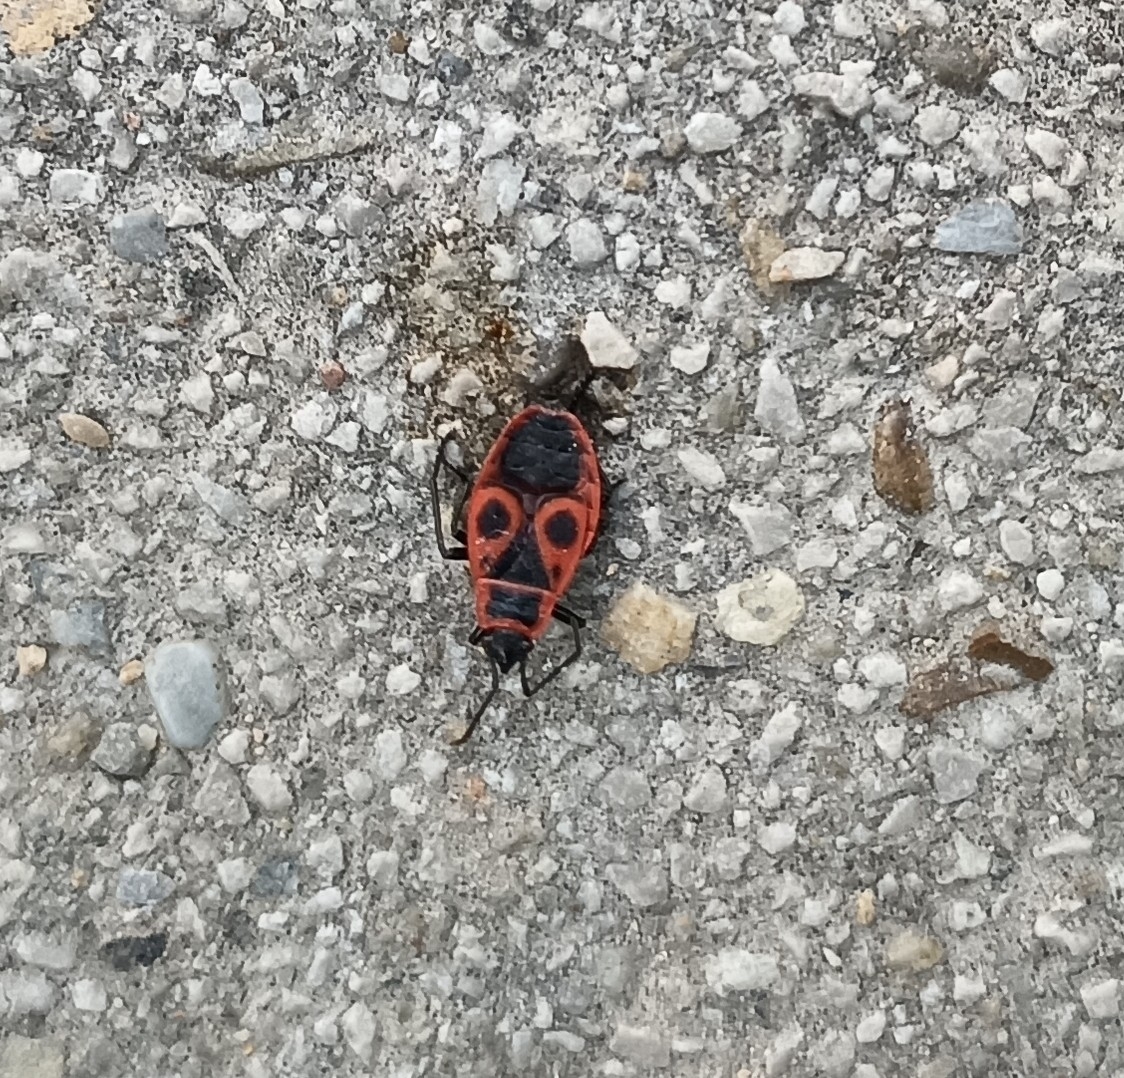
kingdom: Animalia
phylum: Arthropoda
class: Insecta
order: Hemiptera
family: Pyrrhocoridae
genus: Pyrrhocoris
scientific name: Pyrrhocoris apterus
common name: Firebug
